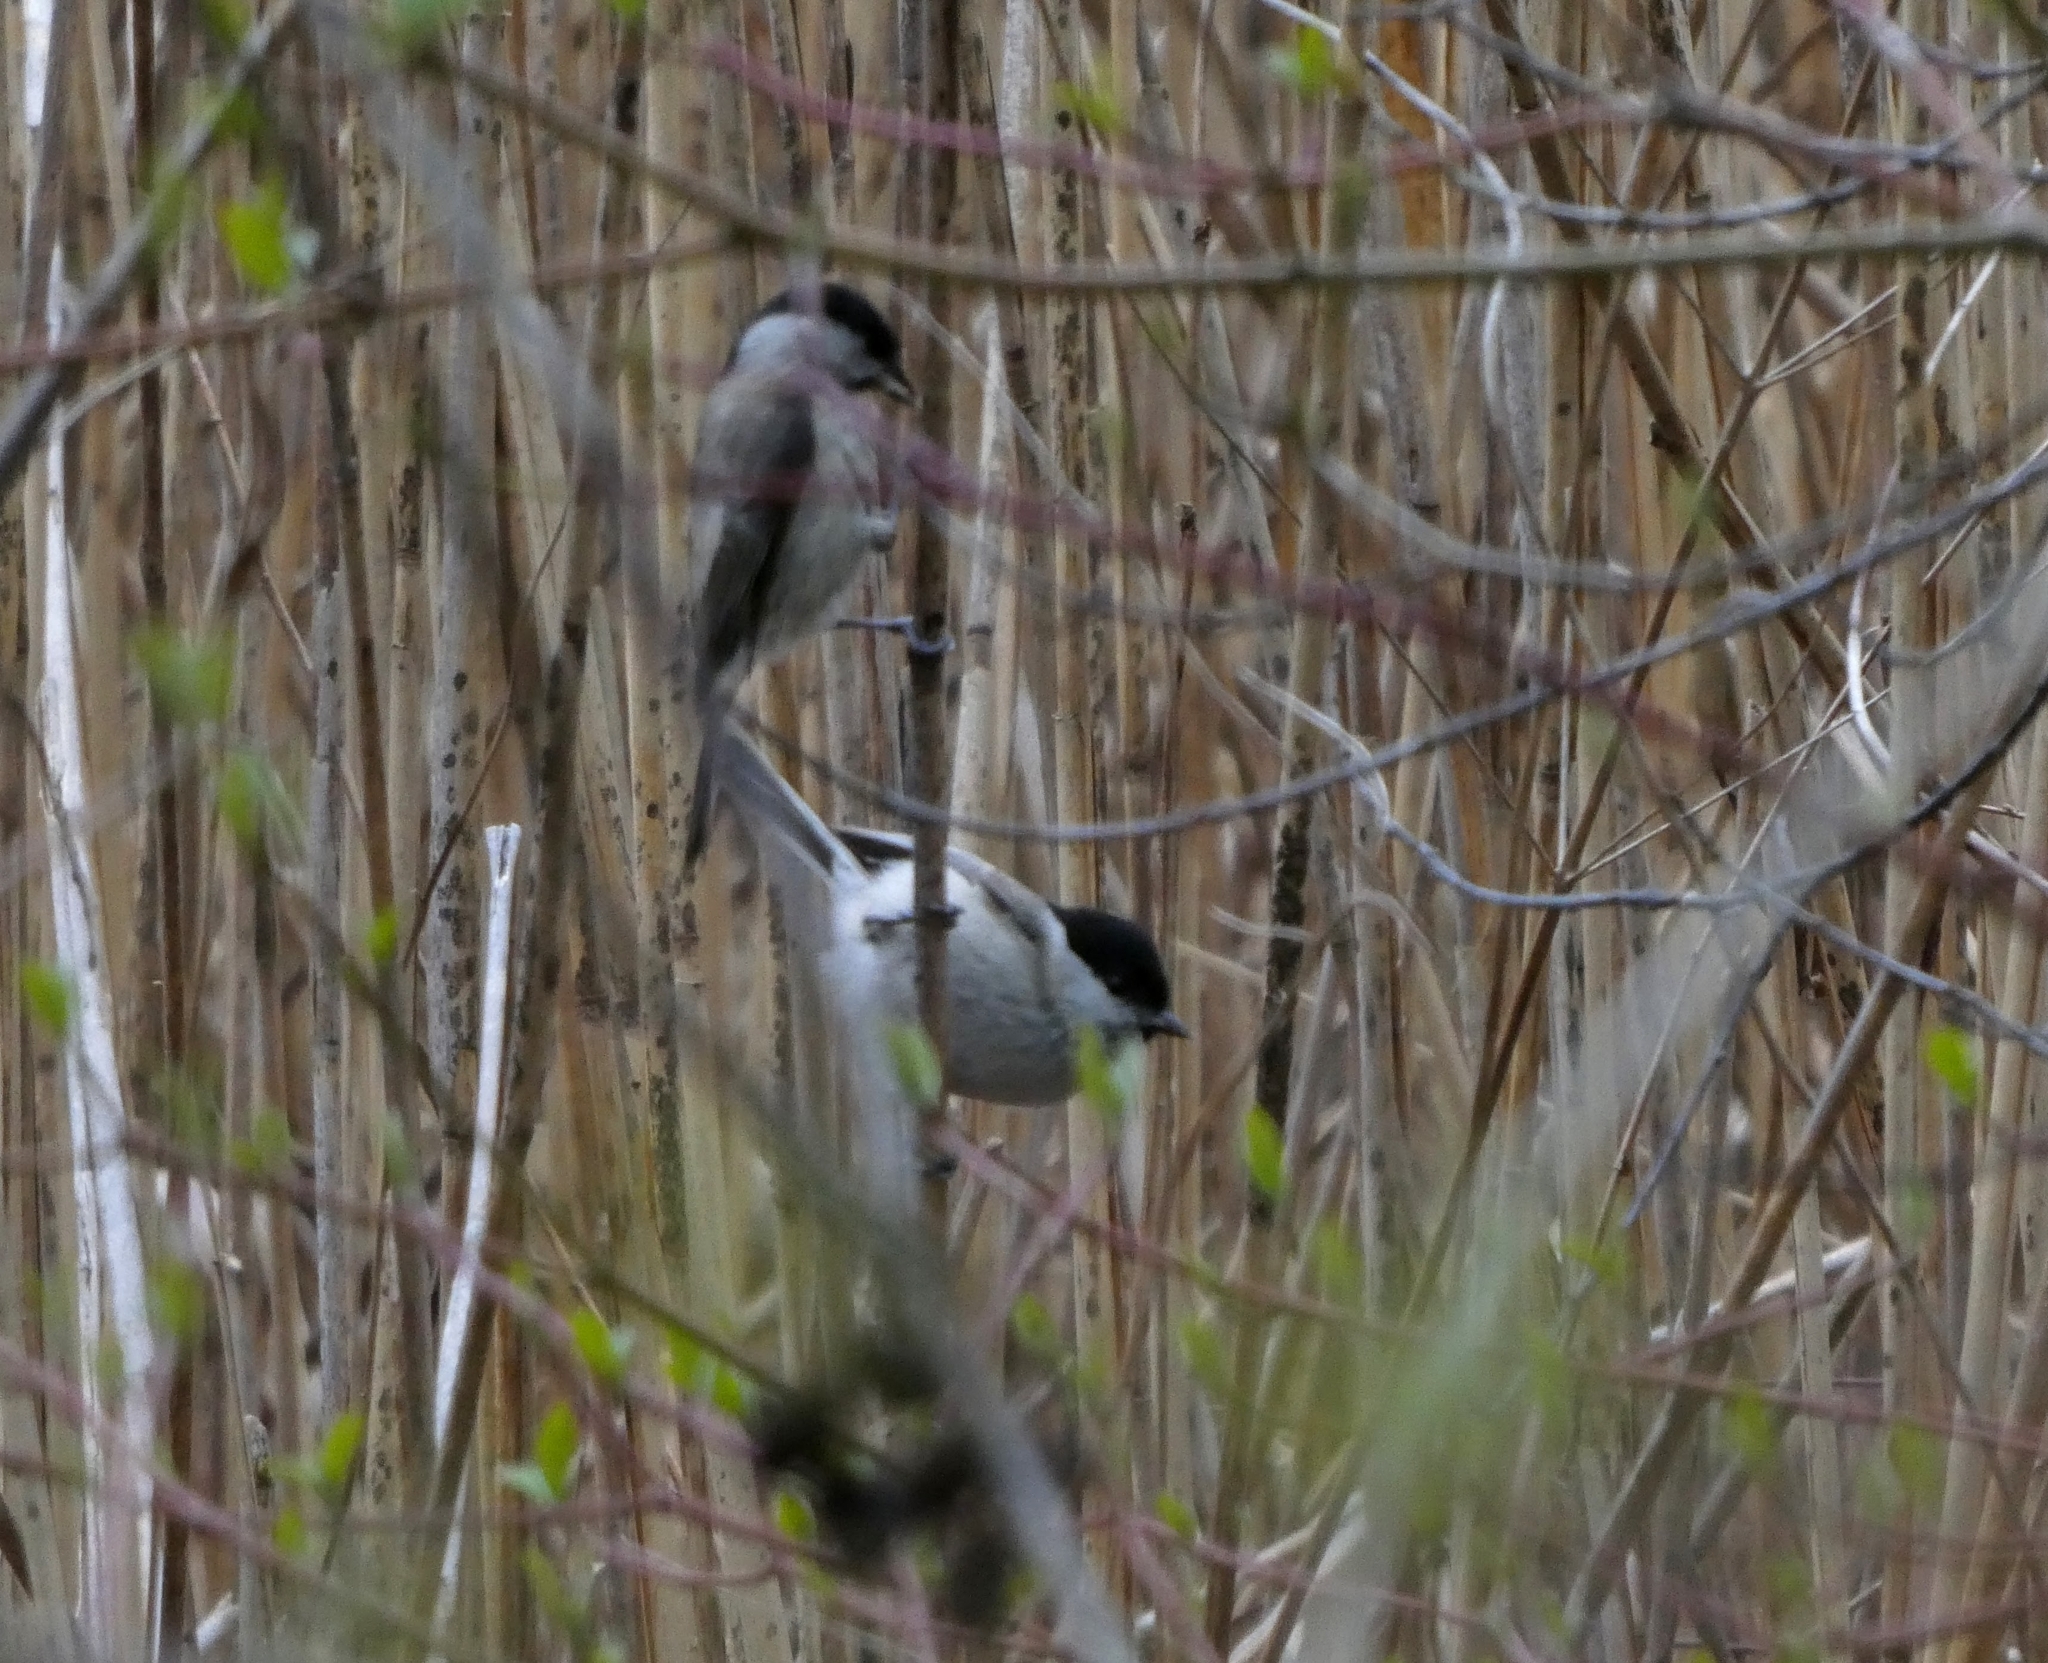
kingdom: Animalia
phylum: Chordata
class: Aves
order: Passeriformes
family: Paridae
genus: Poecile
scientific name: Poecile palustris
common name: Marsh tit
